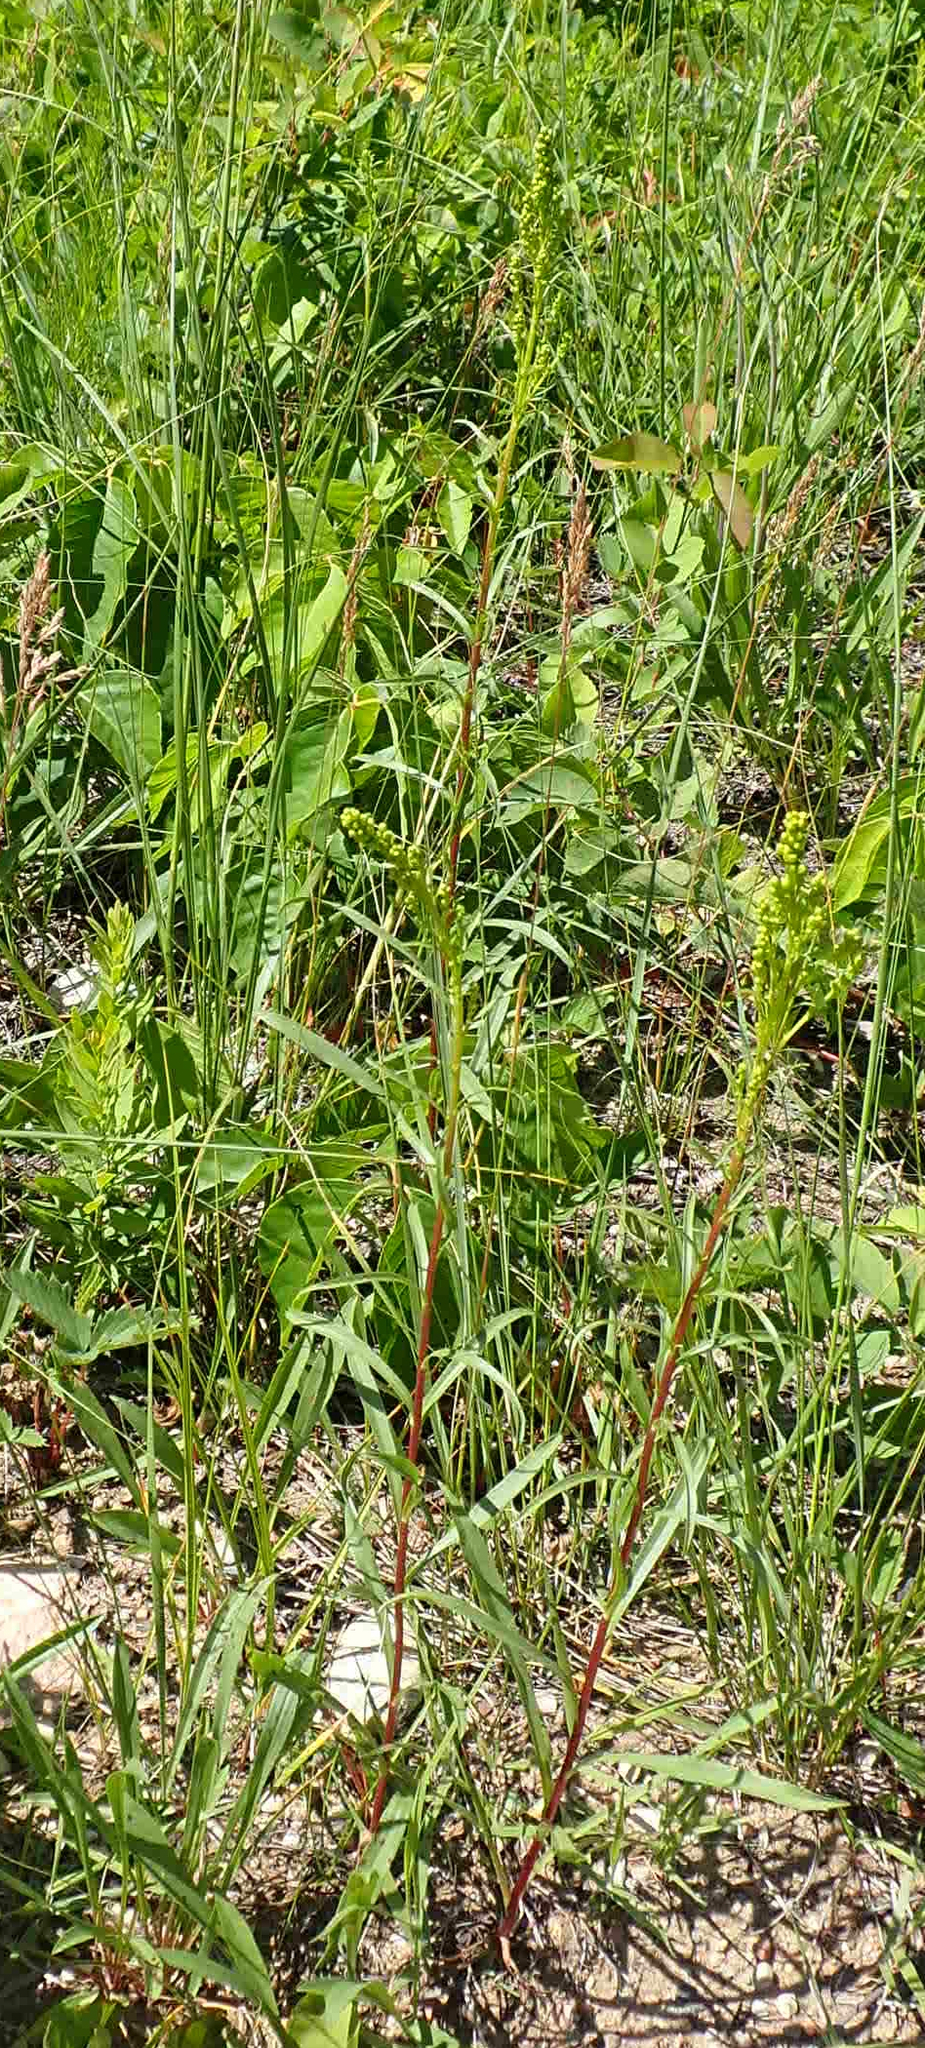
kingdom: Plantae
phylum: Tracheophyta
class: Magnoliopsida
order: Asterales
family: Asteraceae
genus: Solidago
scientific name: Solidago missouriensis
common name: Prairie goldenrod
